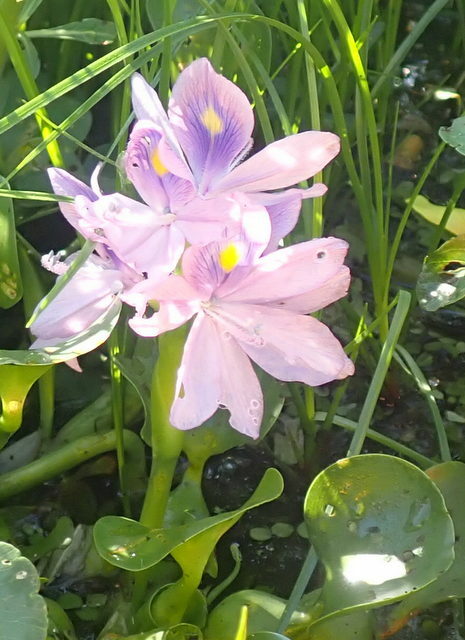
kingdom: Plantae
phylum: Tracheophyta
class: Liliopsida
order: Commelinales
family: Pontederiaceae
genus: Pontederia
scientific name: Pontederia crassipes
